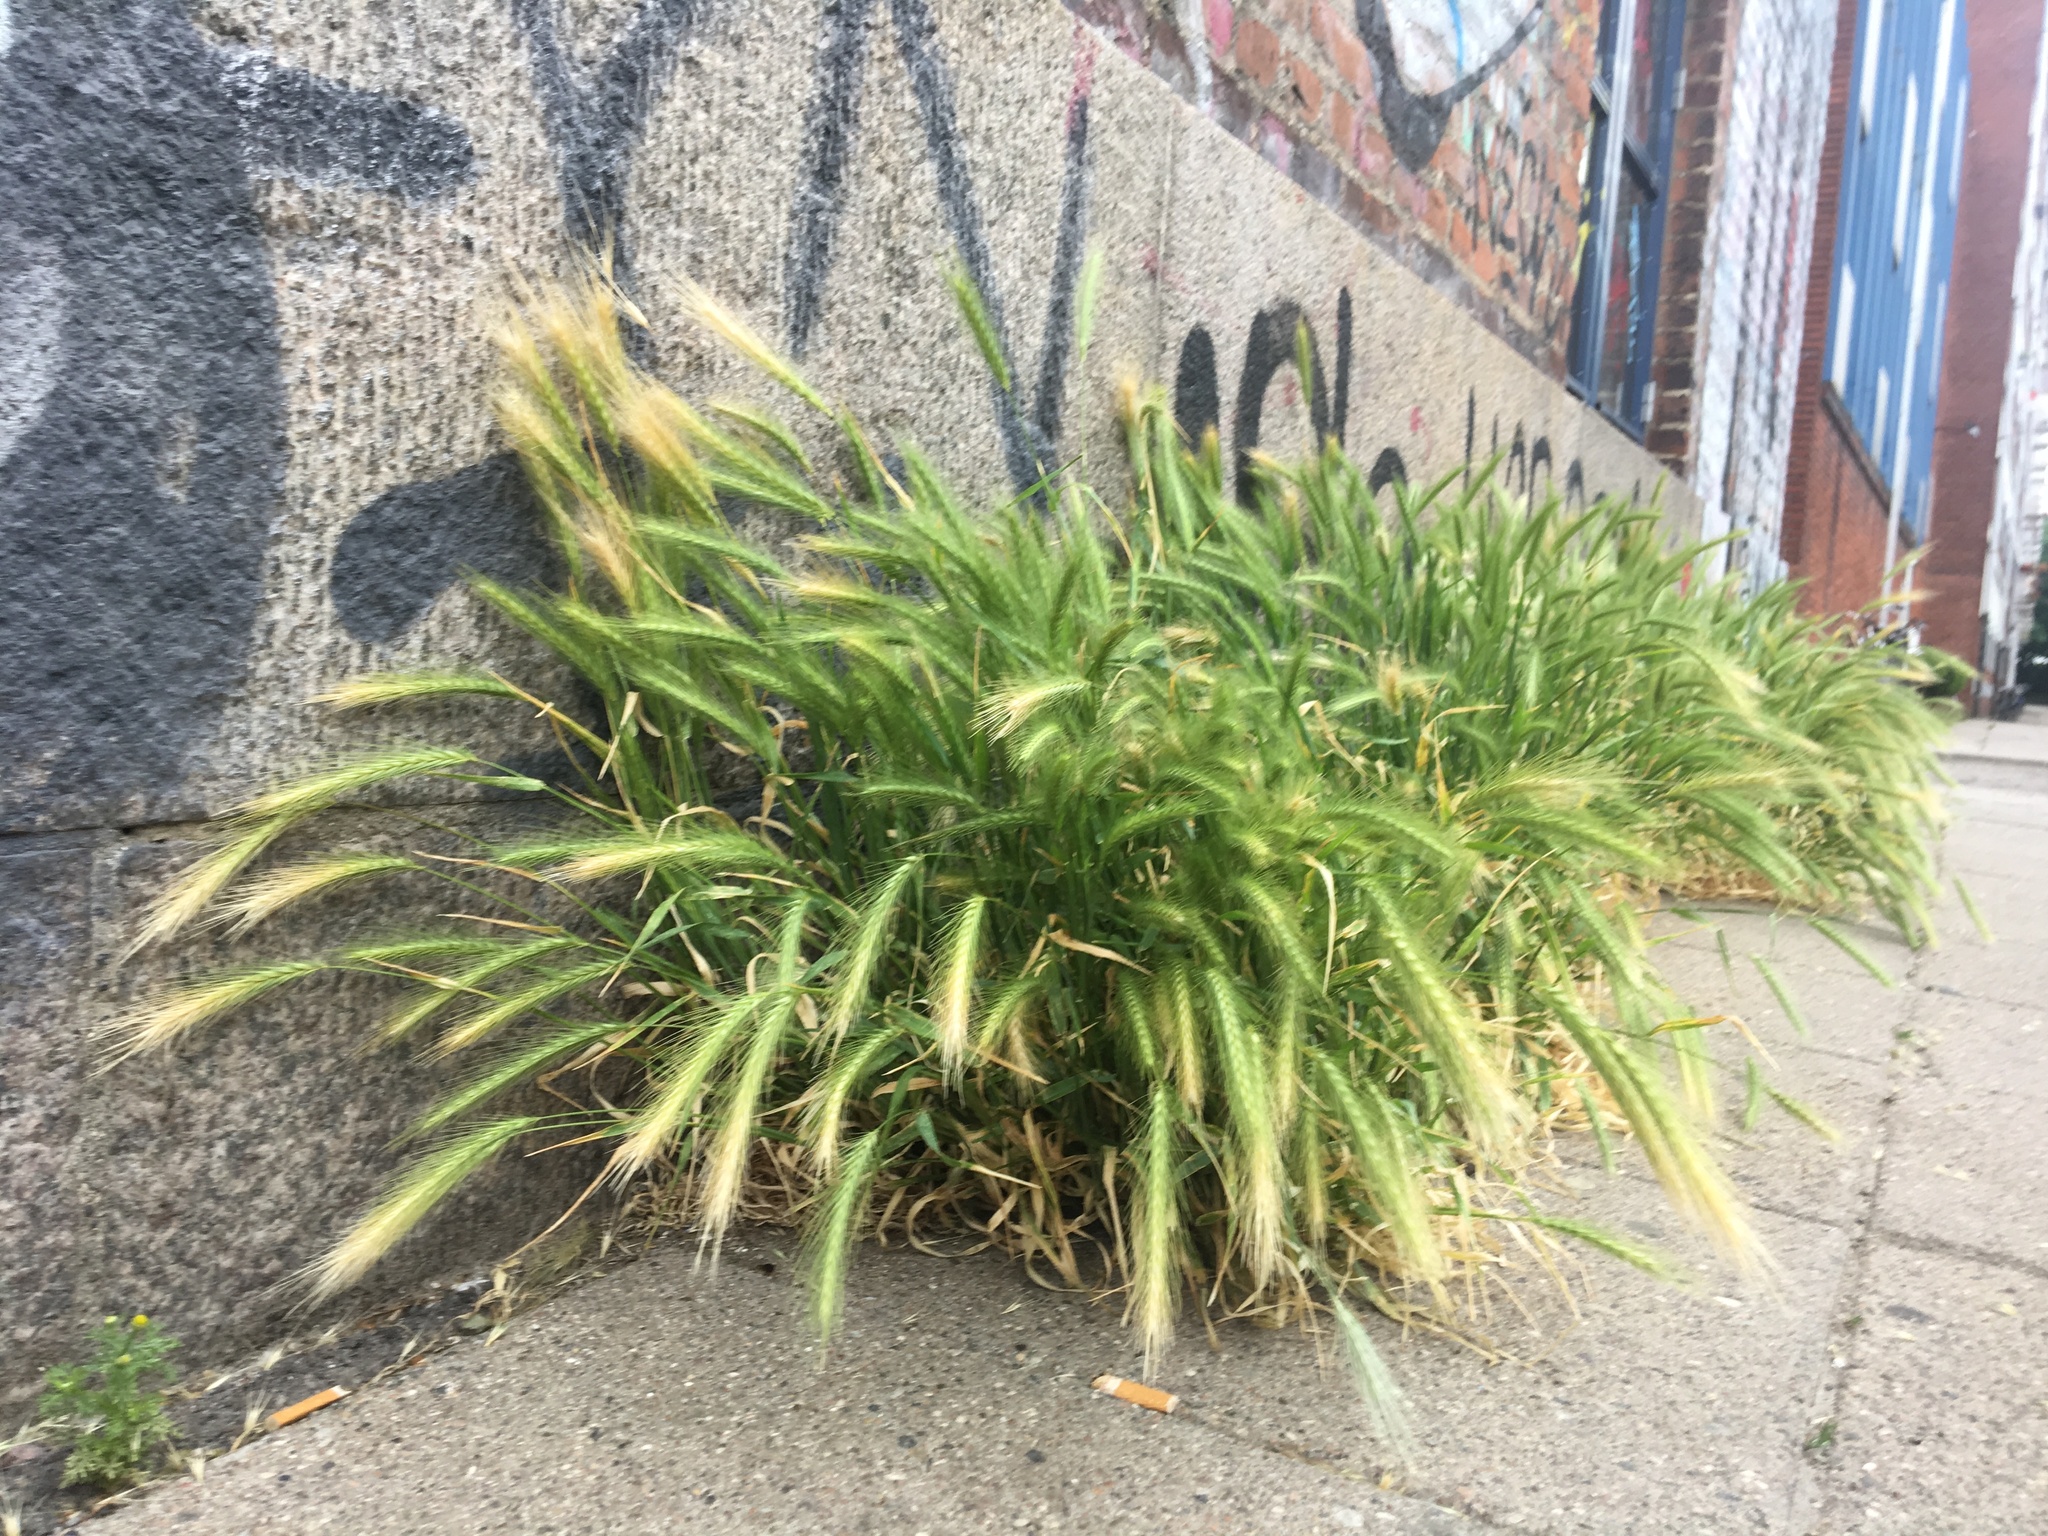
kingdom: Plantae
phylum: Tracheophyta
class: Liliopsida
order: Poales
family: Poaceae
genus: Hordeum
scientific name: Hordeum murinum
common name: Wall barley
